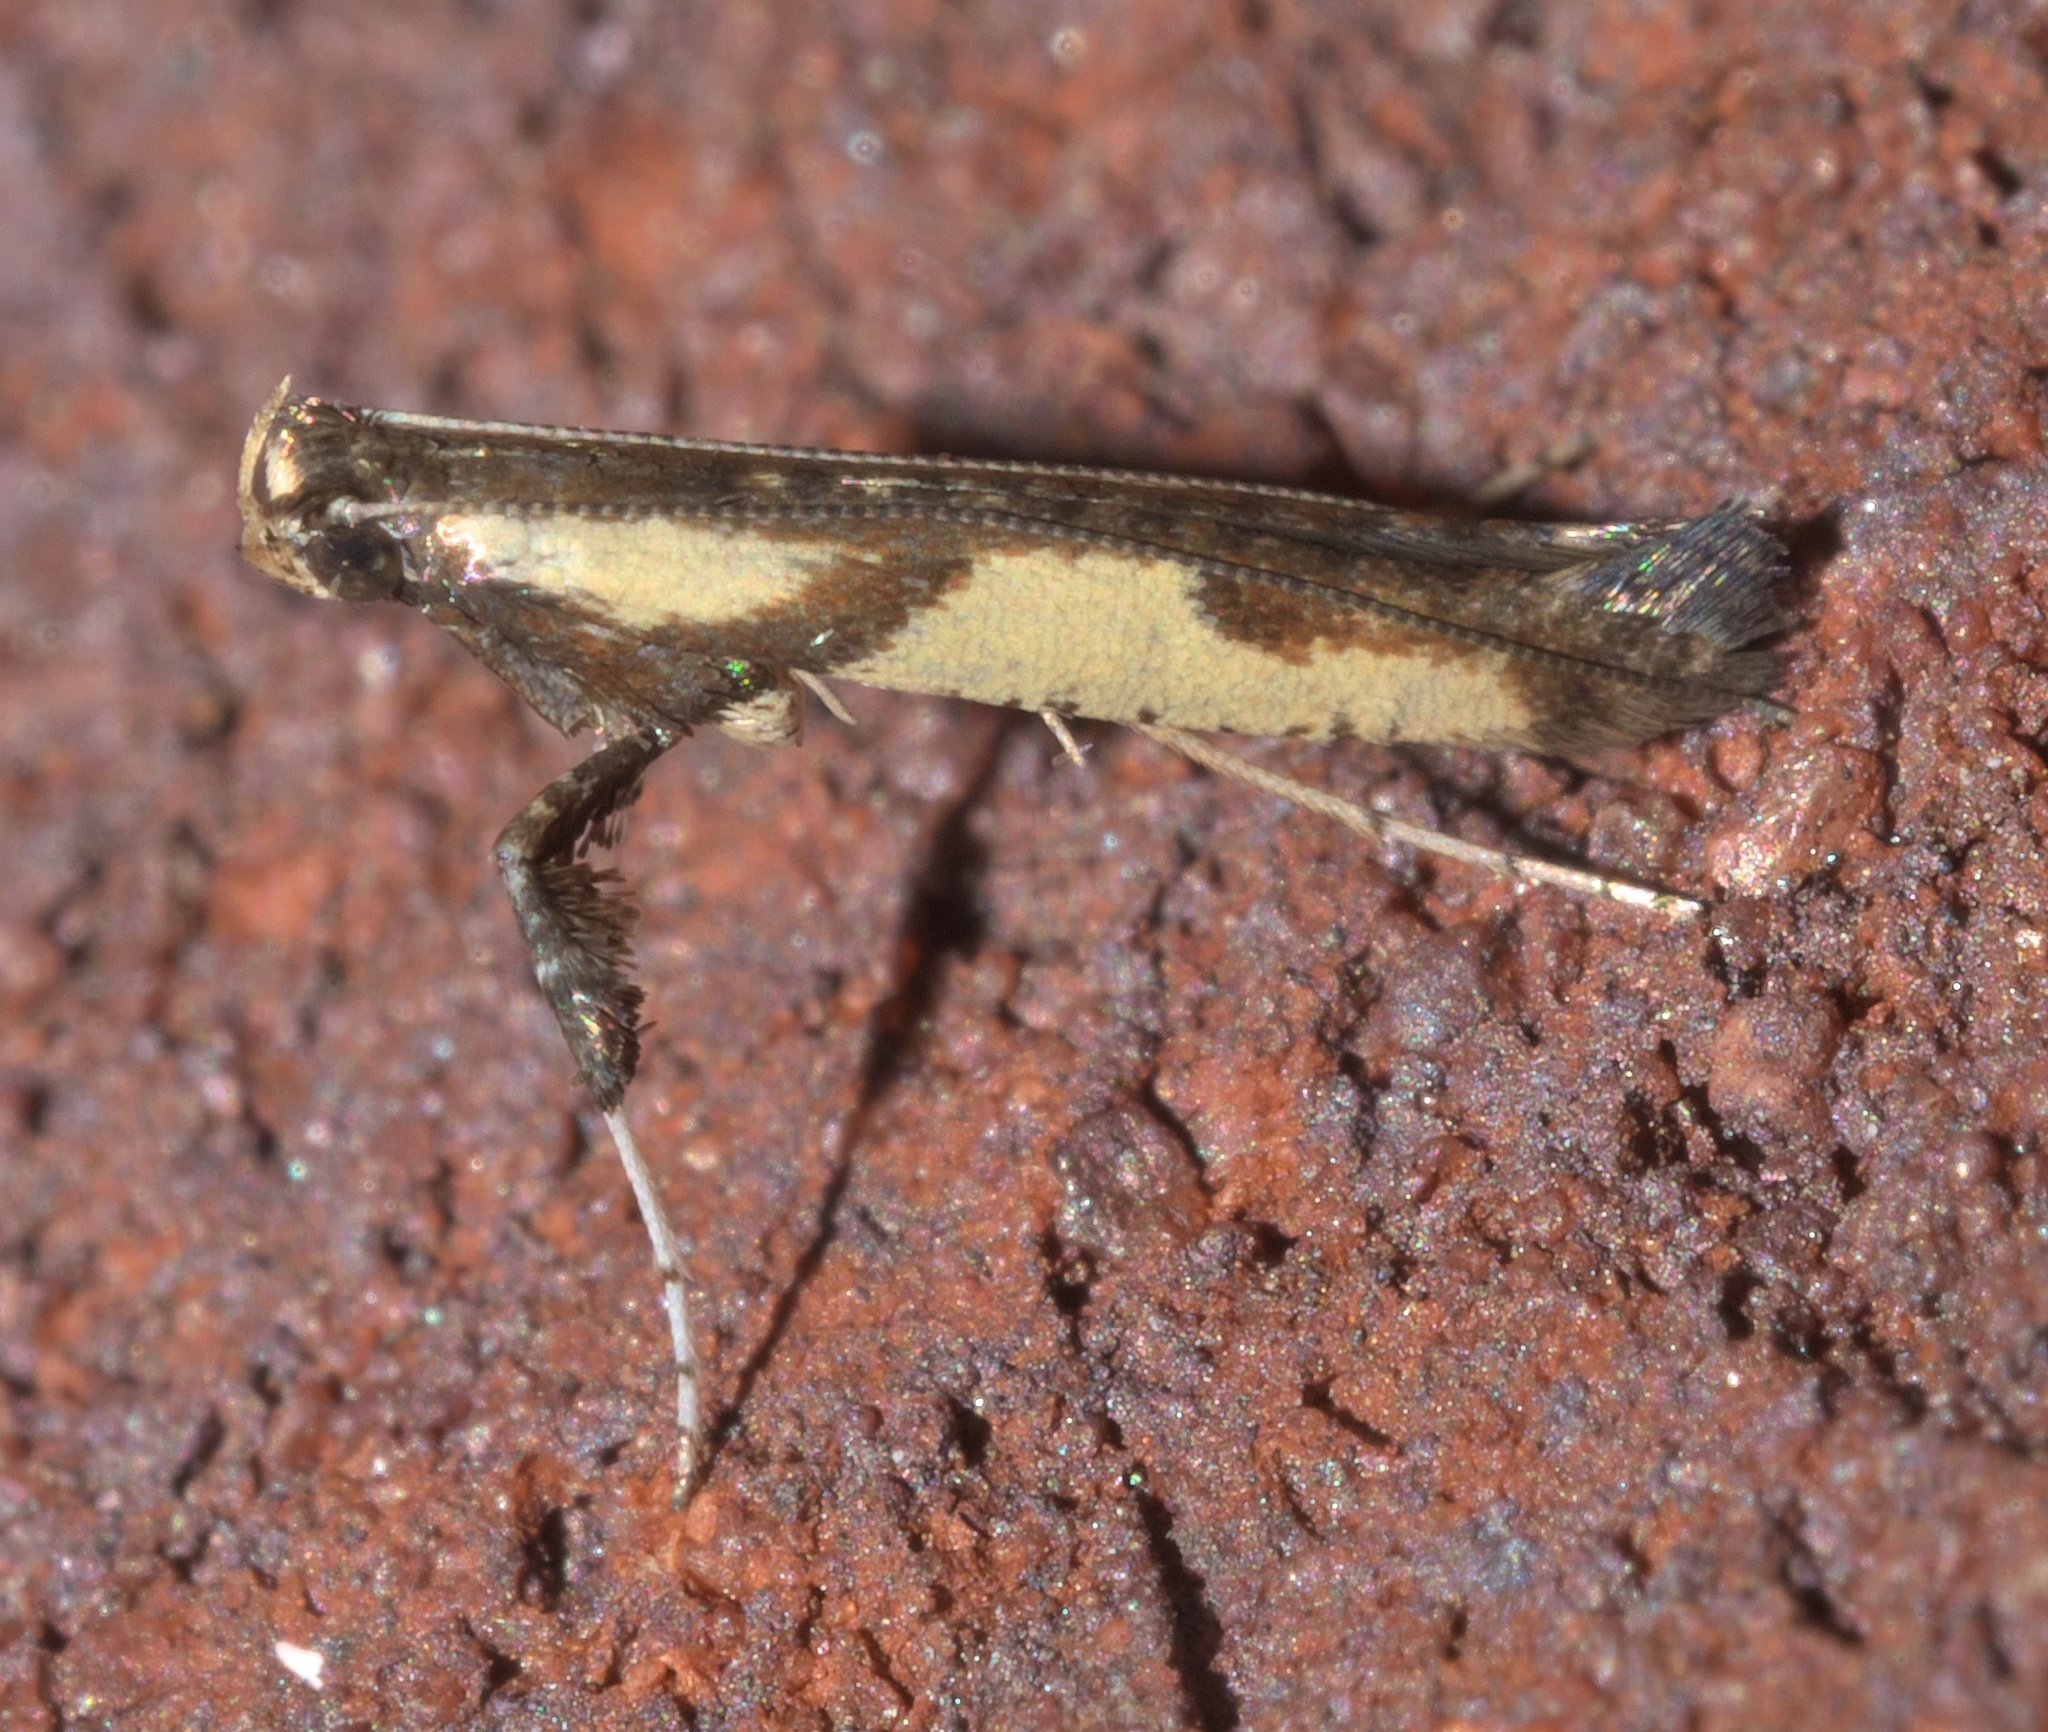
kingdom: Animalia
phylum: Arthropoda
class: Insecta
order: Lepidoptera
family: Gracillariidae
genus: Caloptilia
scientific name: Caloptilia blandella
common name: Walnut caloptilia moth
